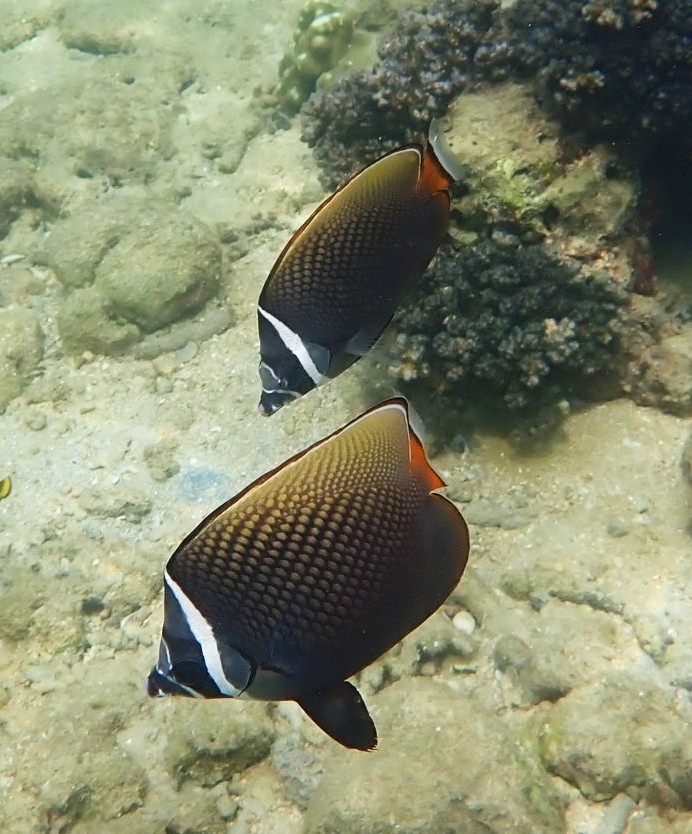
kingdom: Animalia
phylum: Chordata
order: Perciformes
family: Chaetodontidae
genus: Chaetodon
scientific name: Chaetodon collare
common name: Redtail butterflyfish
